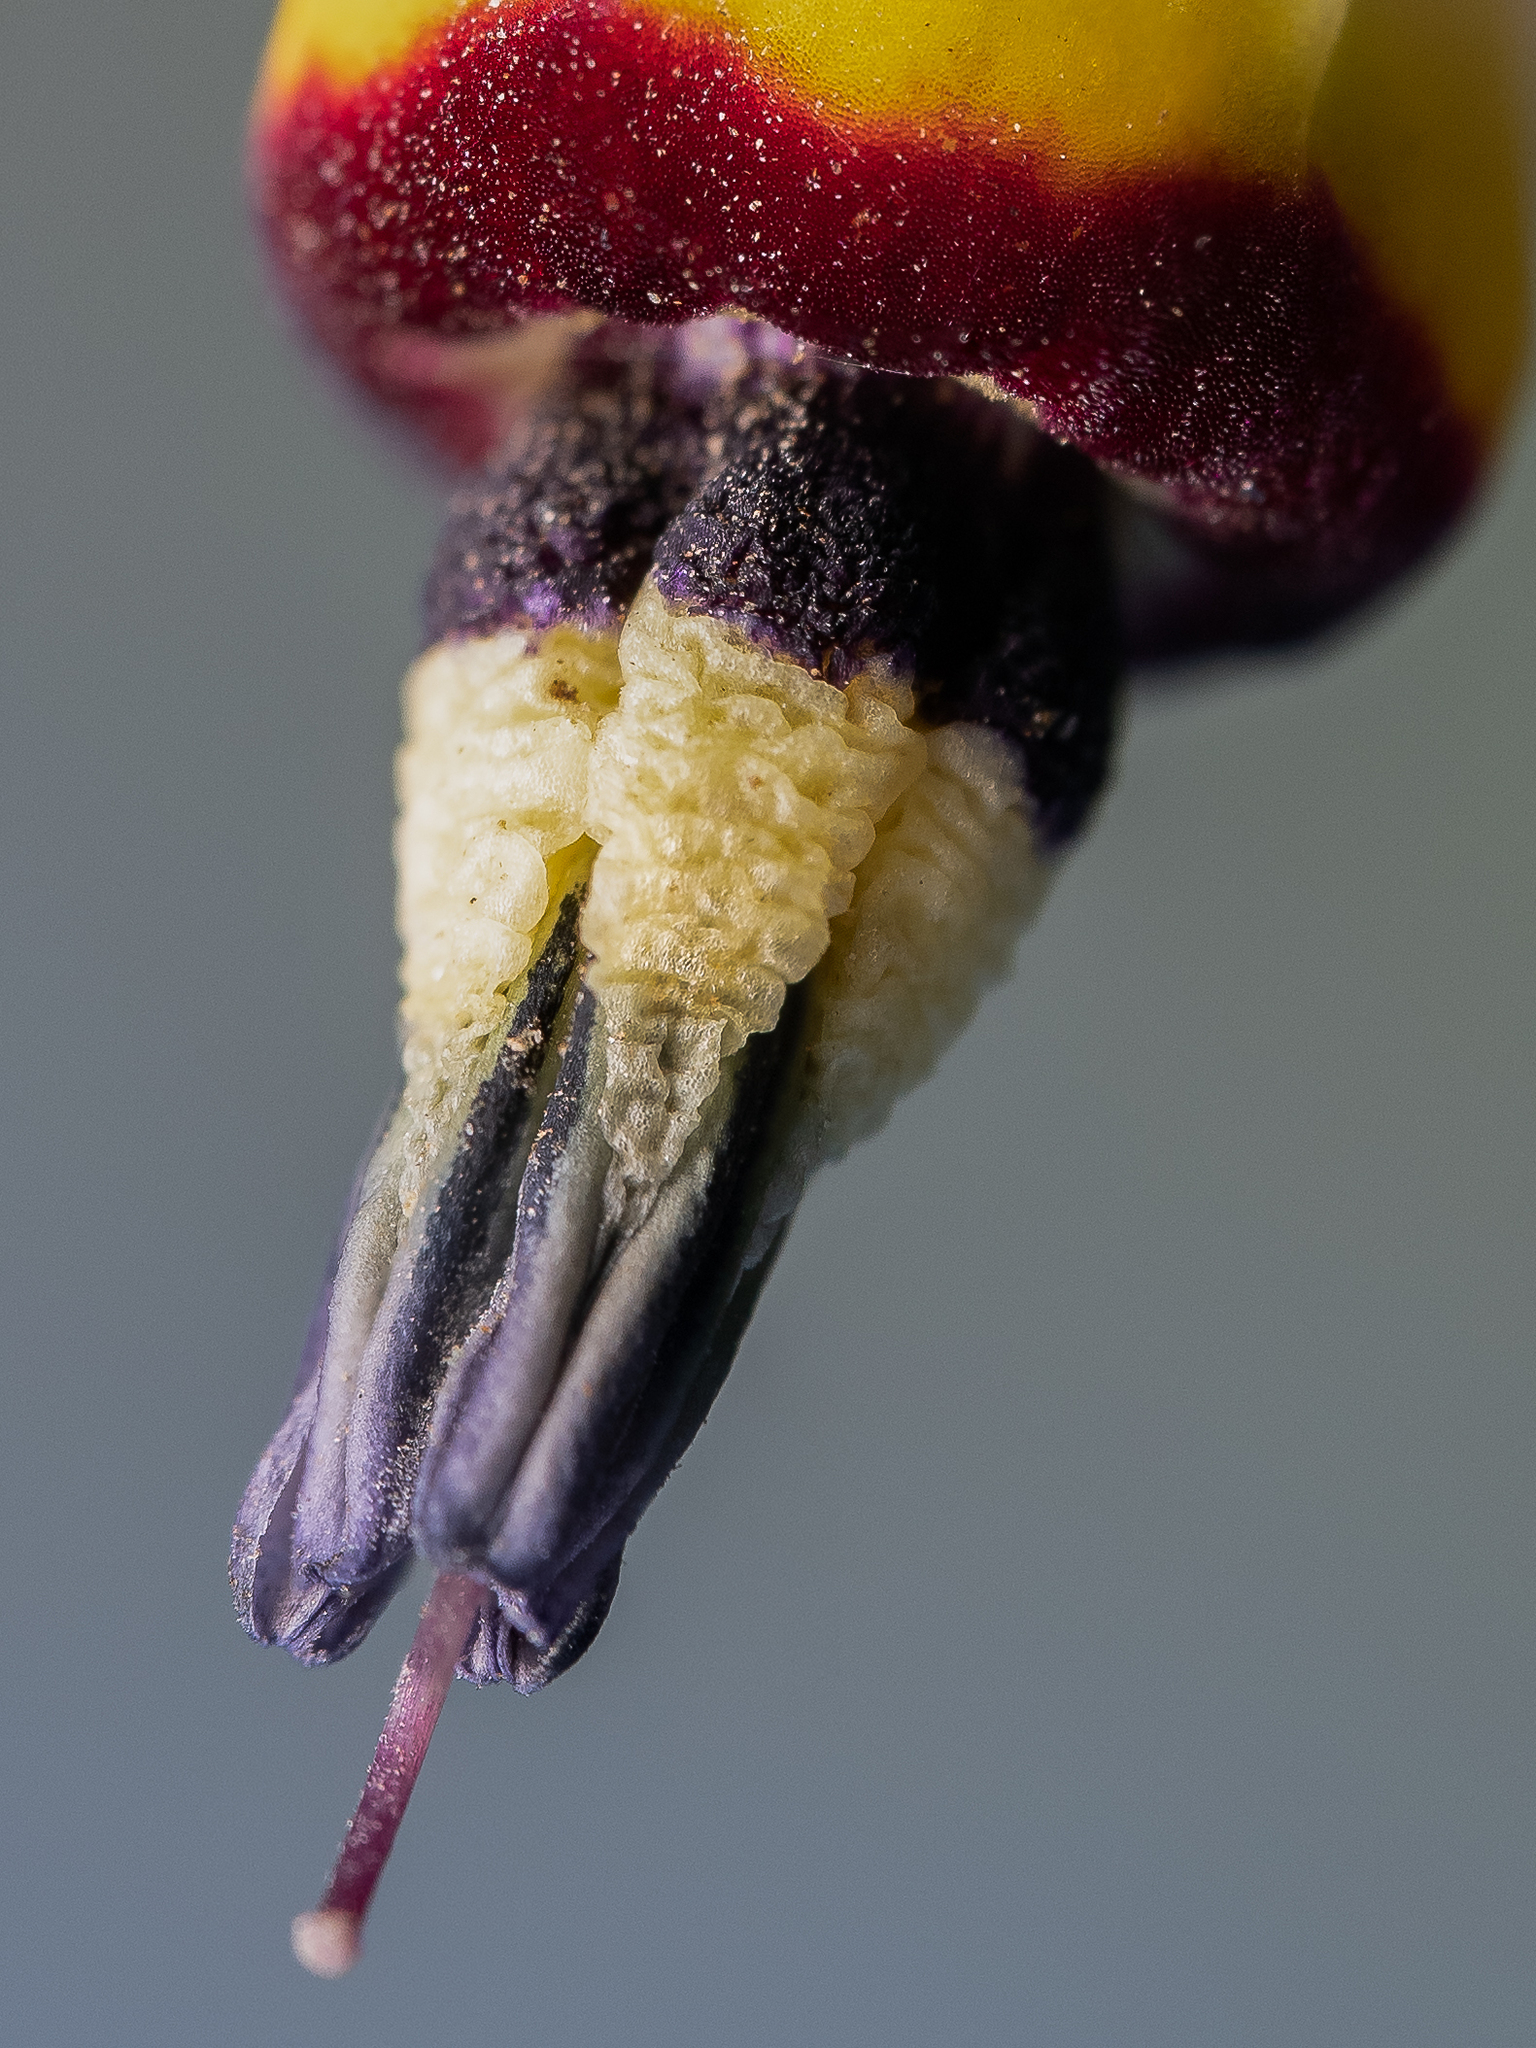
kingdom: Plantae
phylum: Tracheophyta
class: Magnoliopsida
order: Ericales
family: Primulaceae
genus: Dodecatheon
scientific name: Dodecatheon clevelandii
